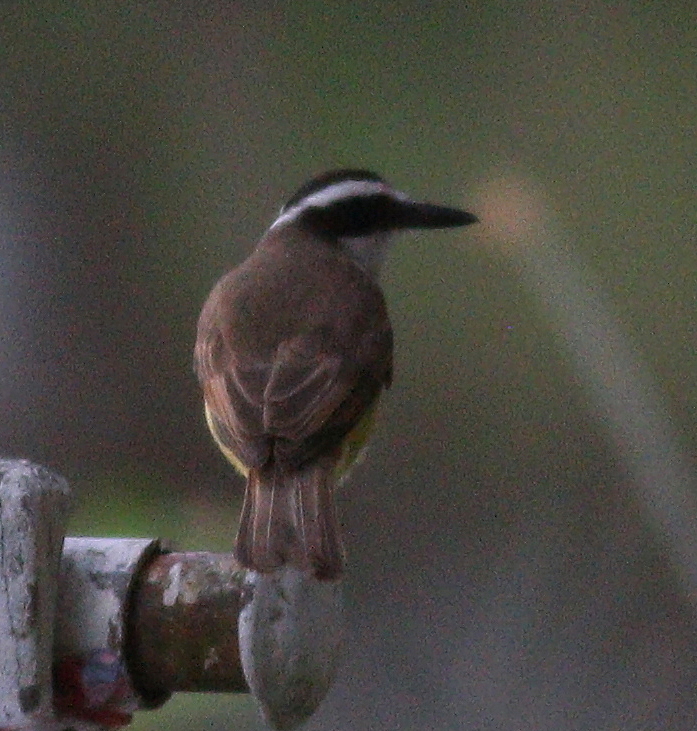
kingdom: Animalia
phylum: Chordata
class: Aves
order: Passeriformes
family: Tyrannidae
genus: Pitangus
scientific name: Pitangus sulphuratus
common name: Great kiskadee
